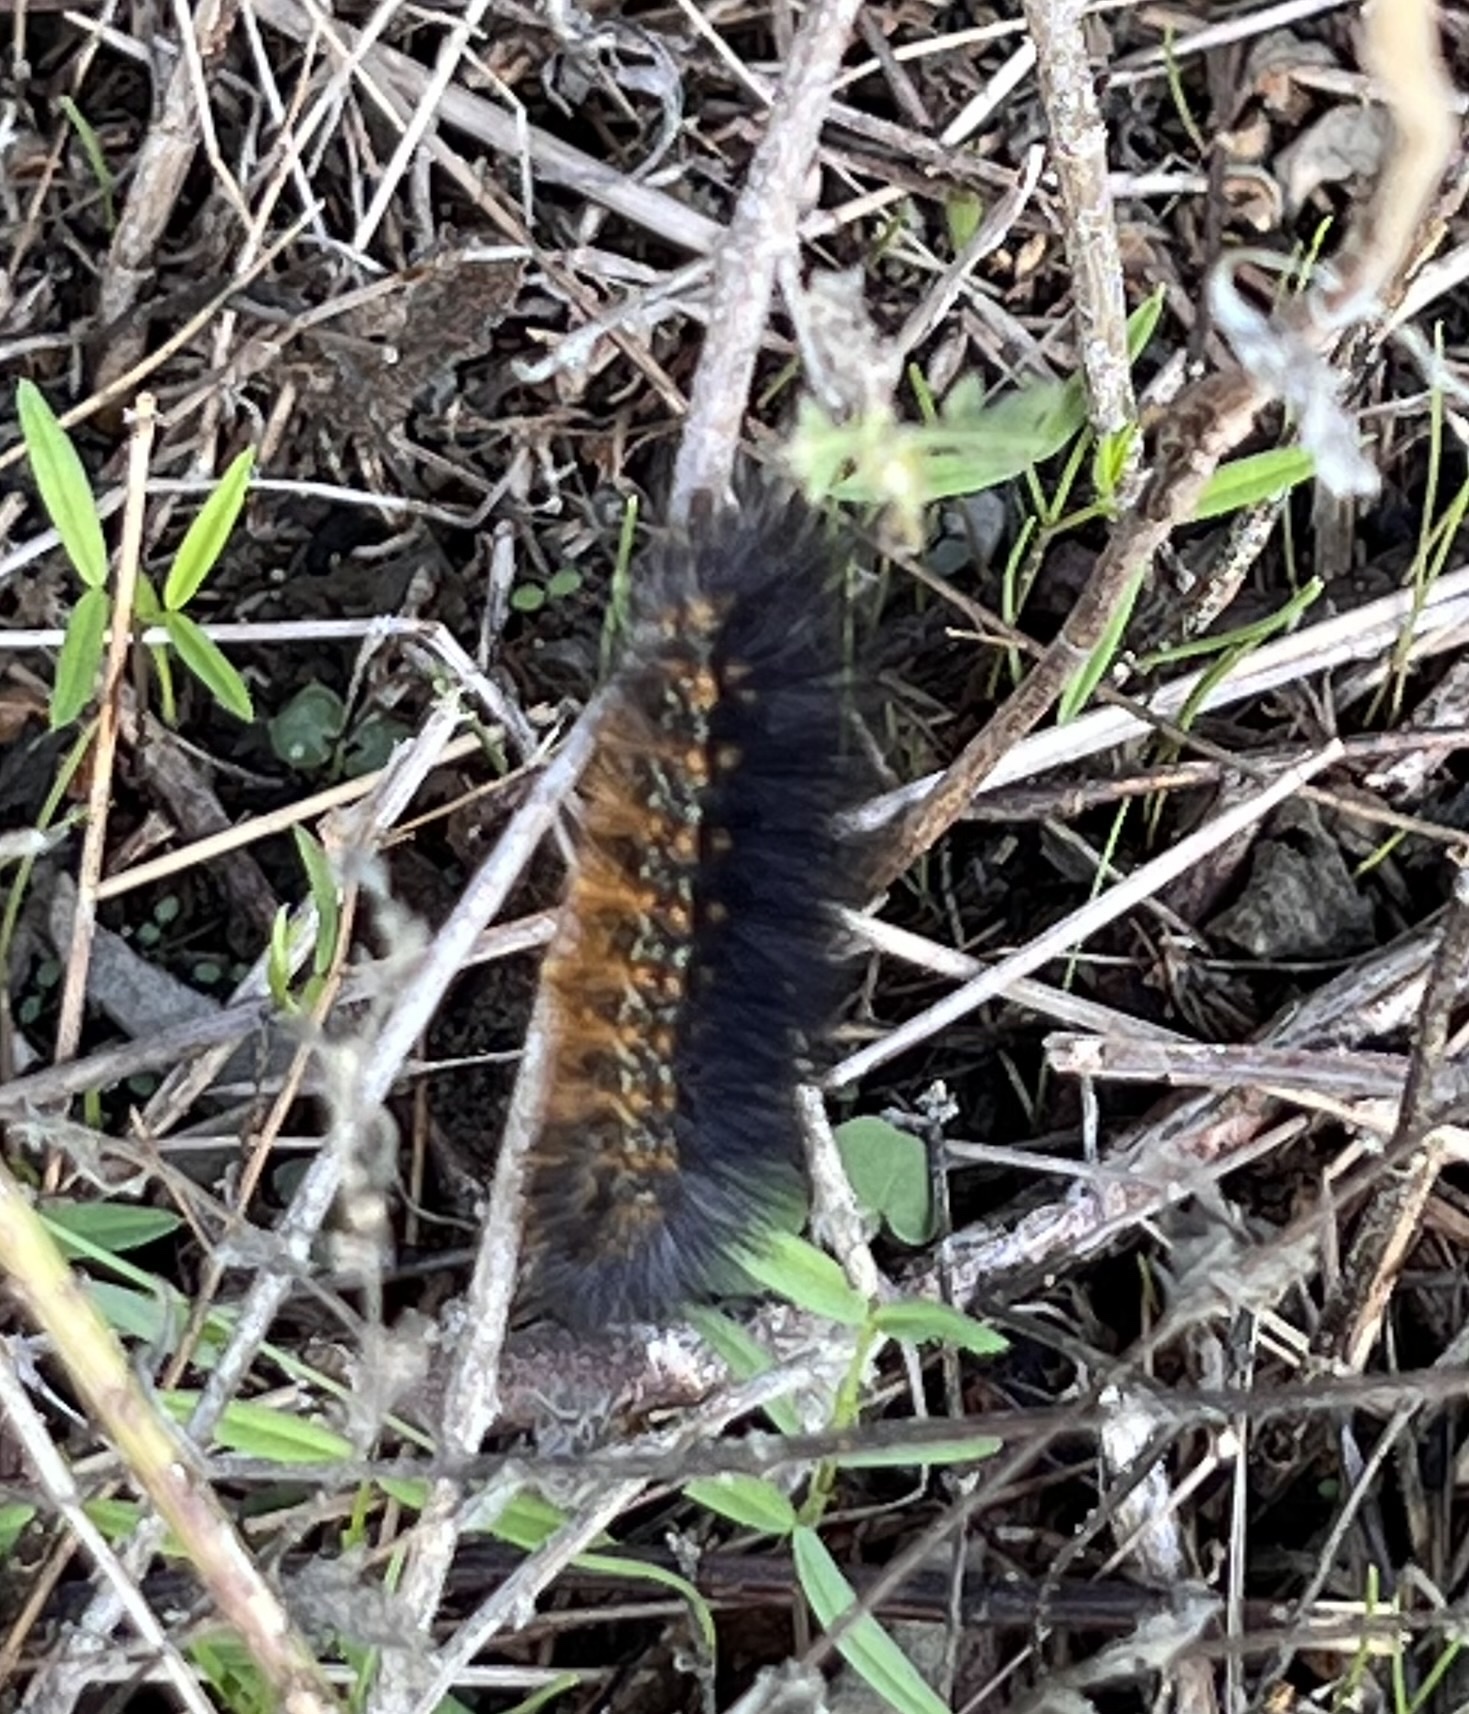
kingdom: Animalia
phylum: Arthropoda
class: Insecta
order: Lepidoptera
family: Erebidae
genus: Estigmene
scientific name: Estigmene acrea
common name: Salt marsh moth
